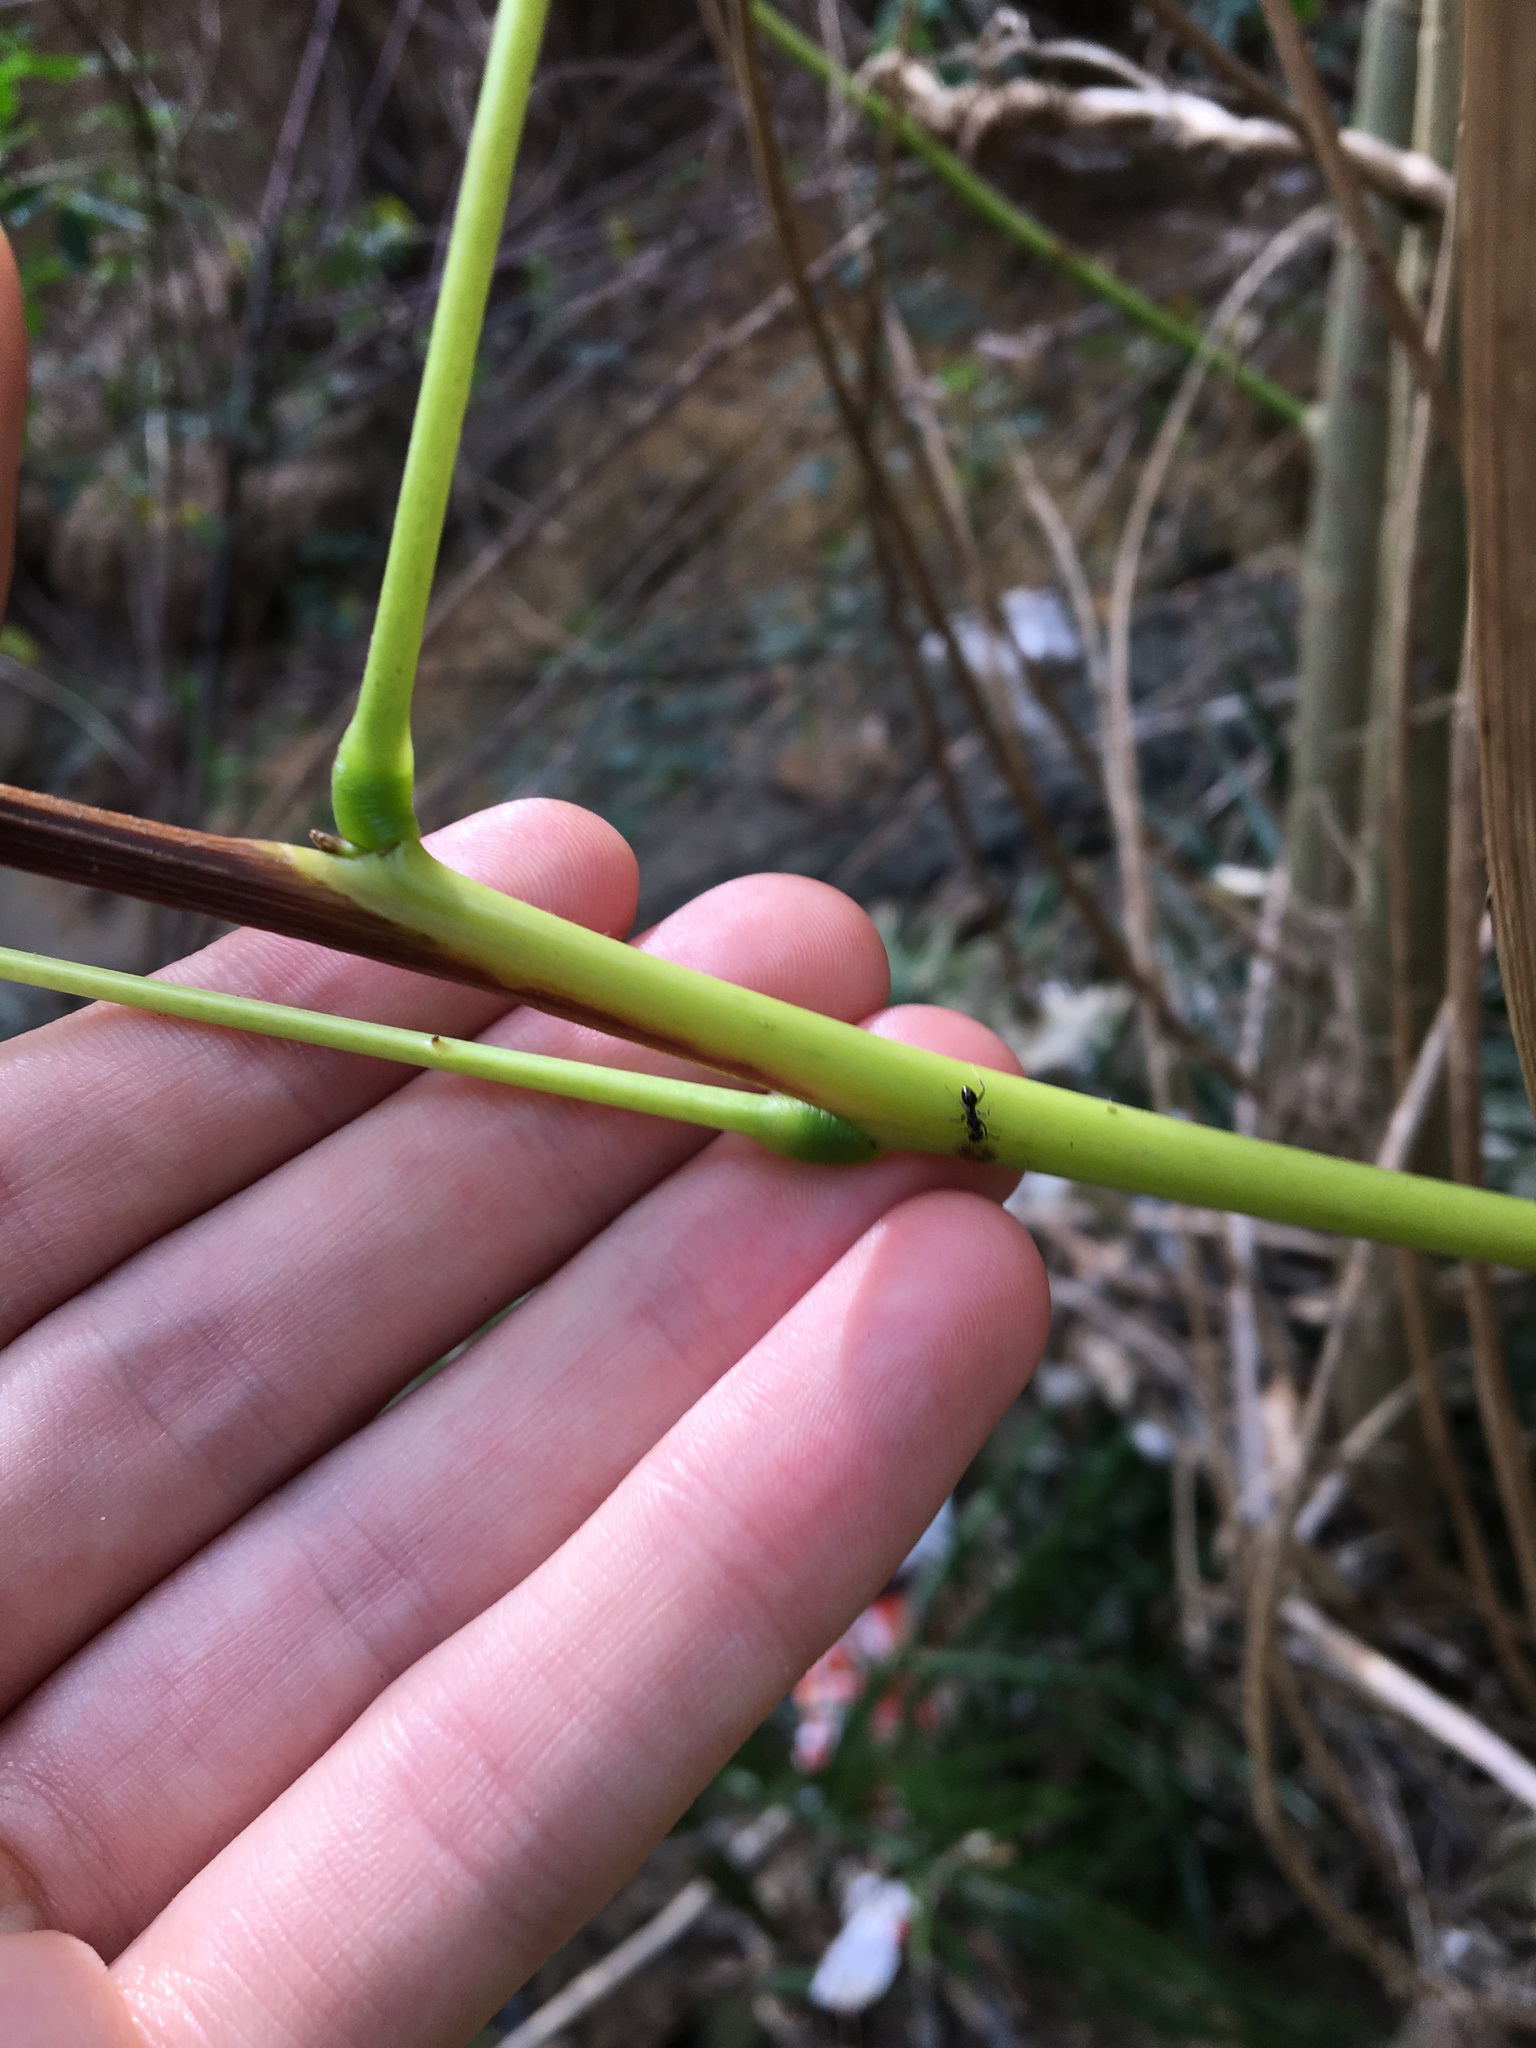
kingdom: Plantae
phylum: Tracheophyta
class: Magnoliopsida
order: Fabales
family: Fabaceae
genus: Erythrina
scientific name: Erythrina crista-galli
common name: Cockspur coral tree
